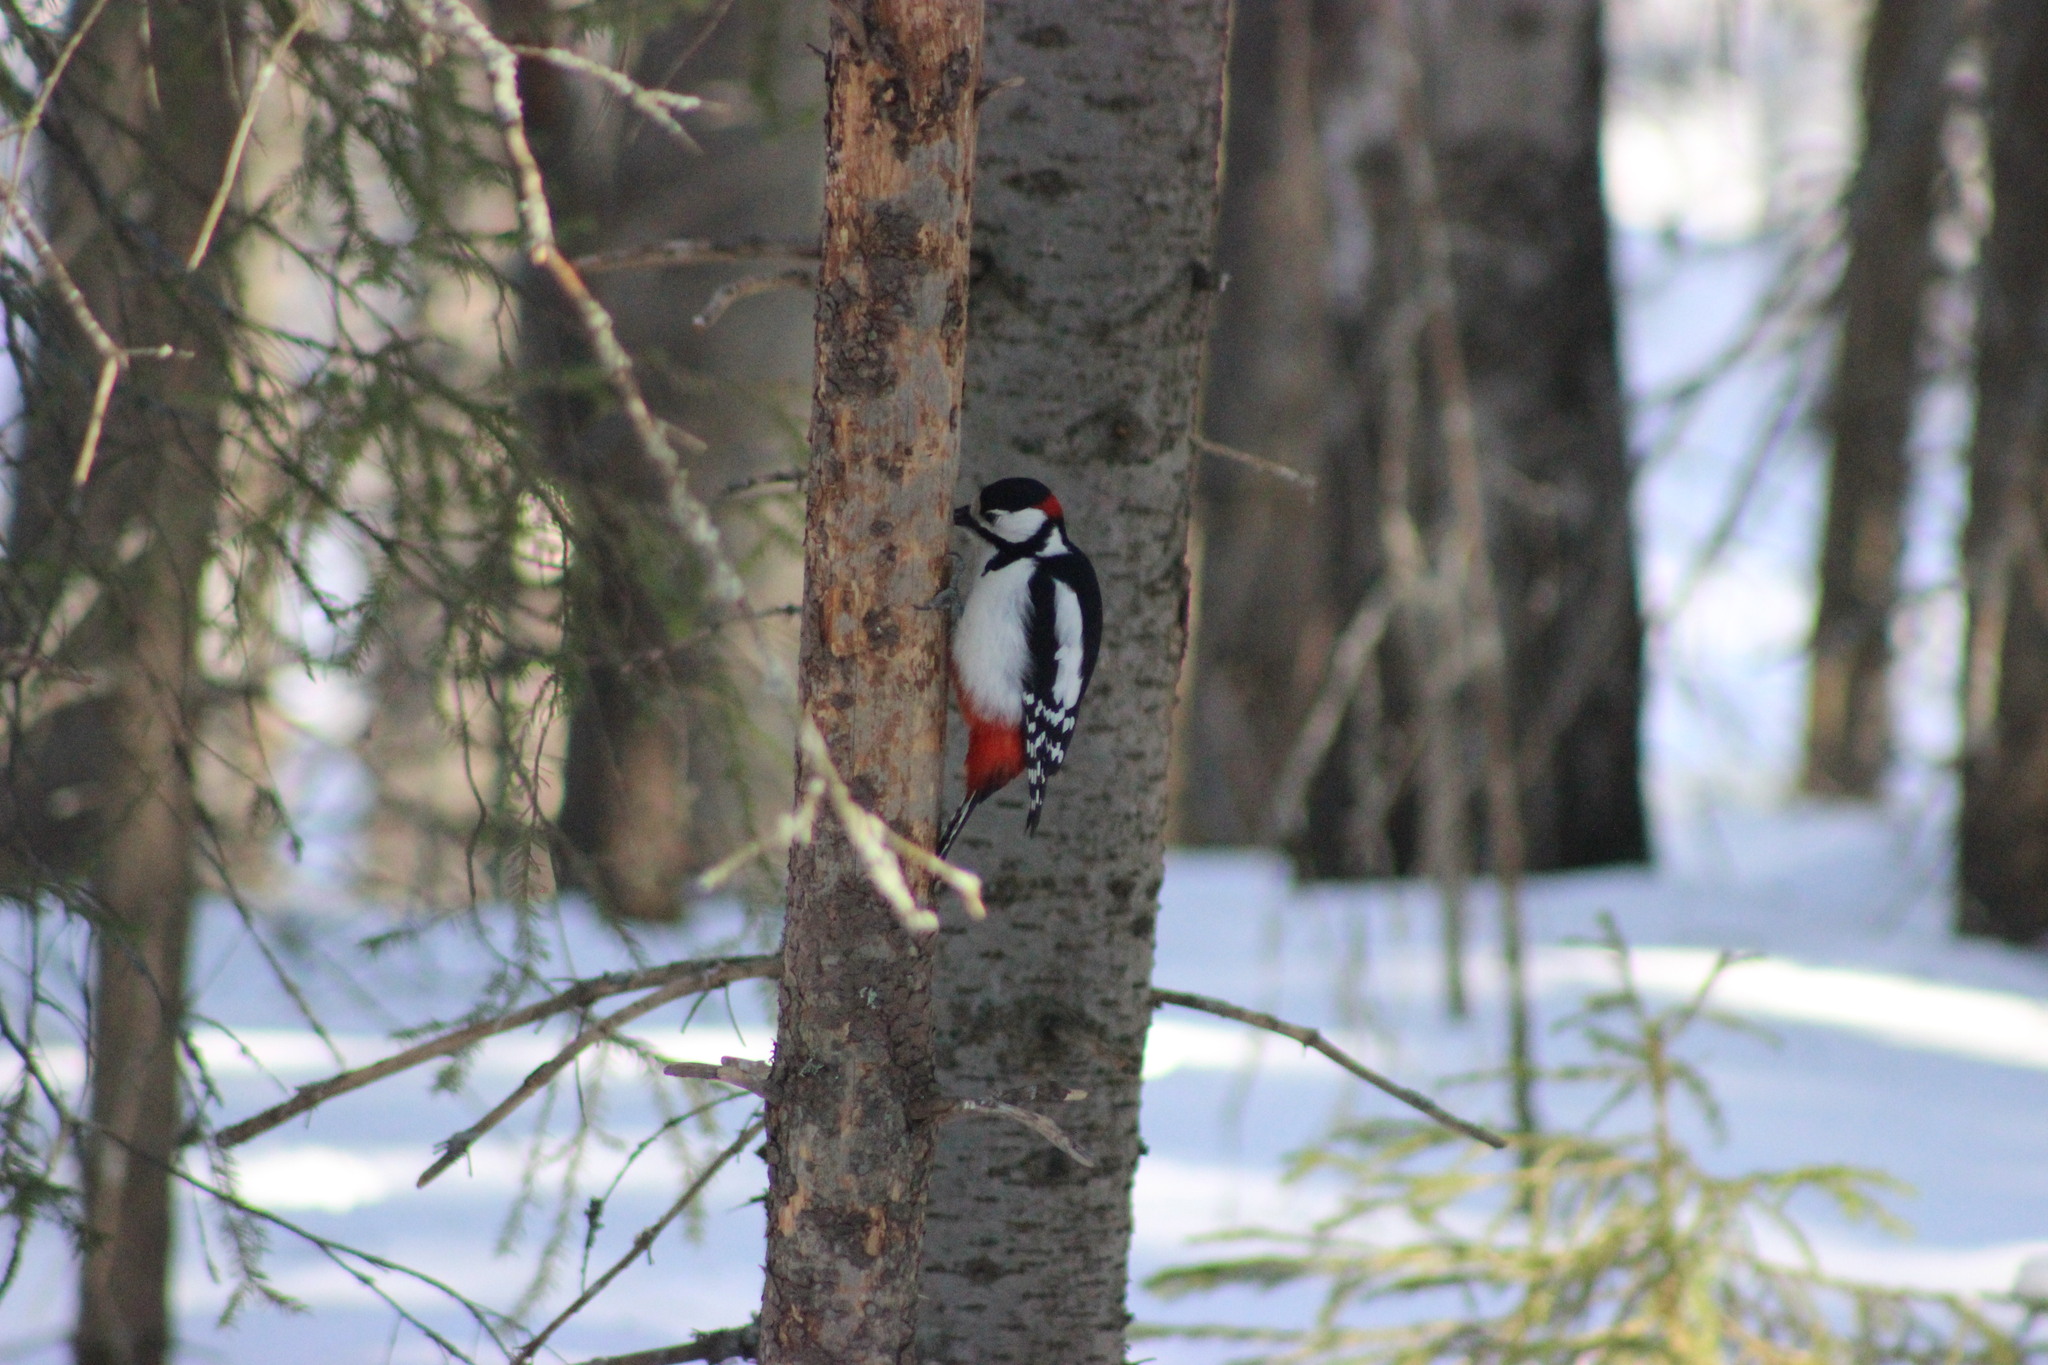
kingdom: Animalia
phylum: Chordata
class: Aves
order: Piciformes
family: Picidae
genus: Dendrocopos
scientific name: Dendrocopos major
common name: Great spotted woodpecker
